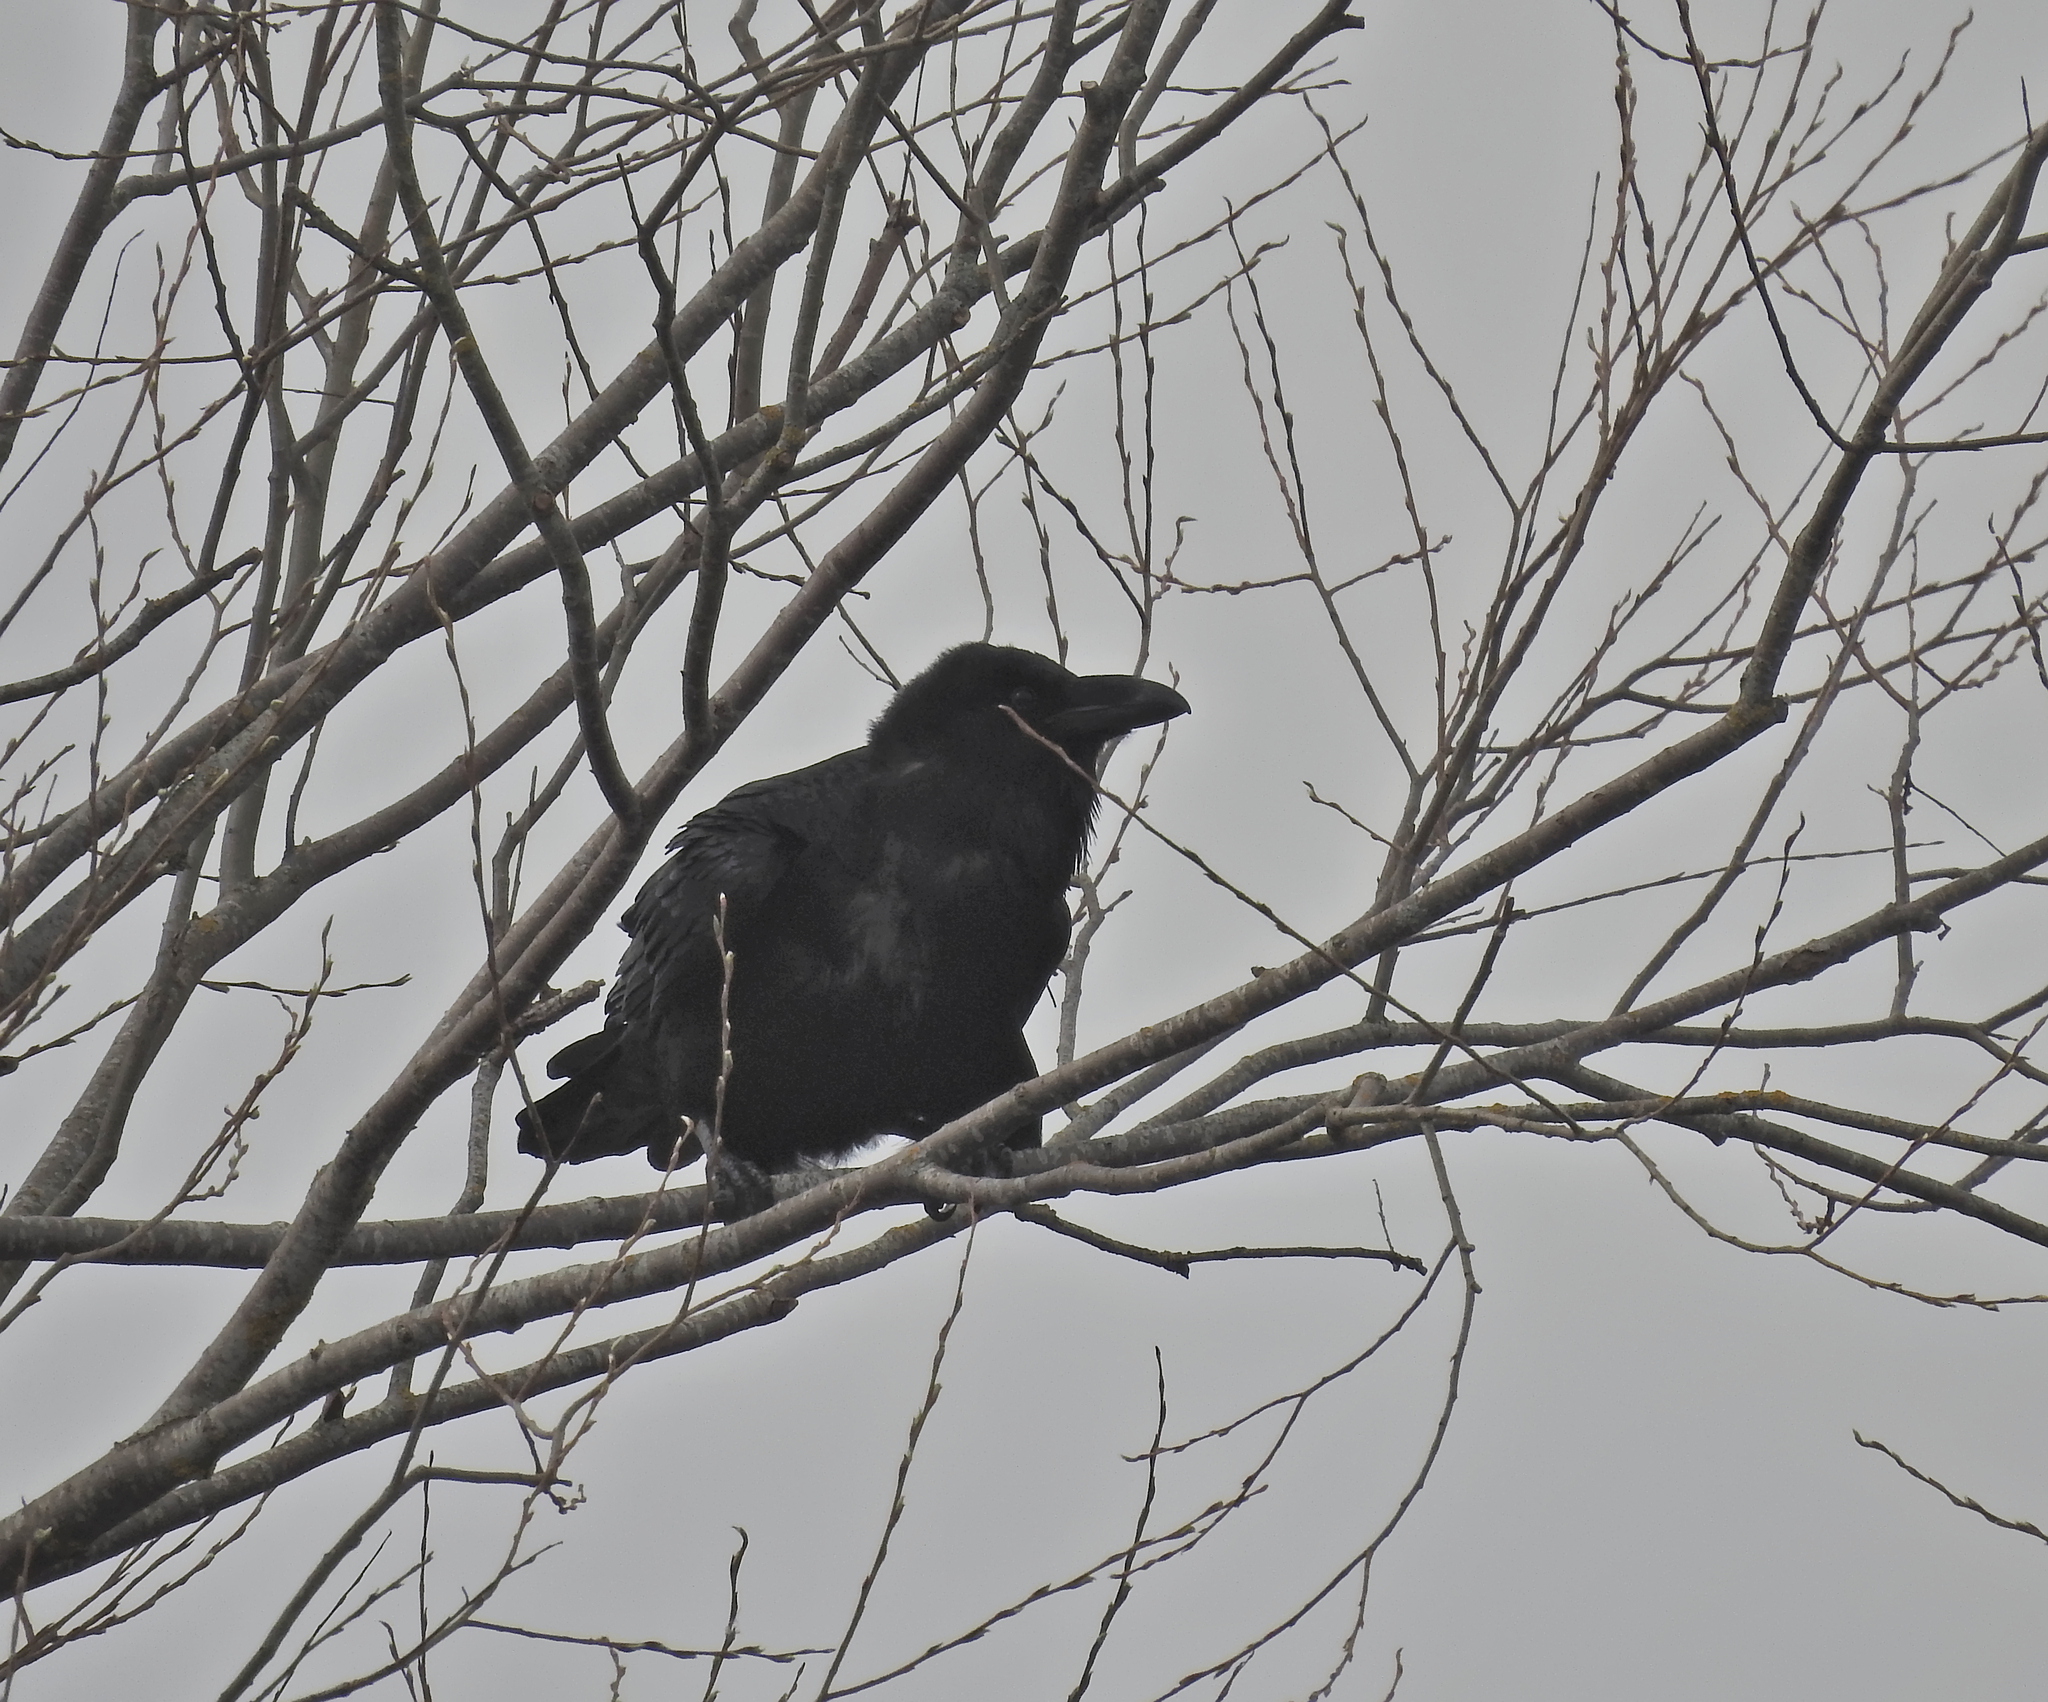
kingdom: Animalia
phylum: Chordata
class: Aves
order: Passeriformes
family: Corvidae
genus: Corvus
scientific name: Corvus corax
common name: Common raven
